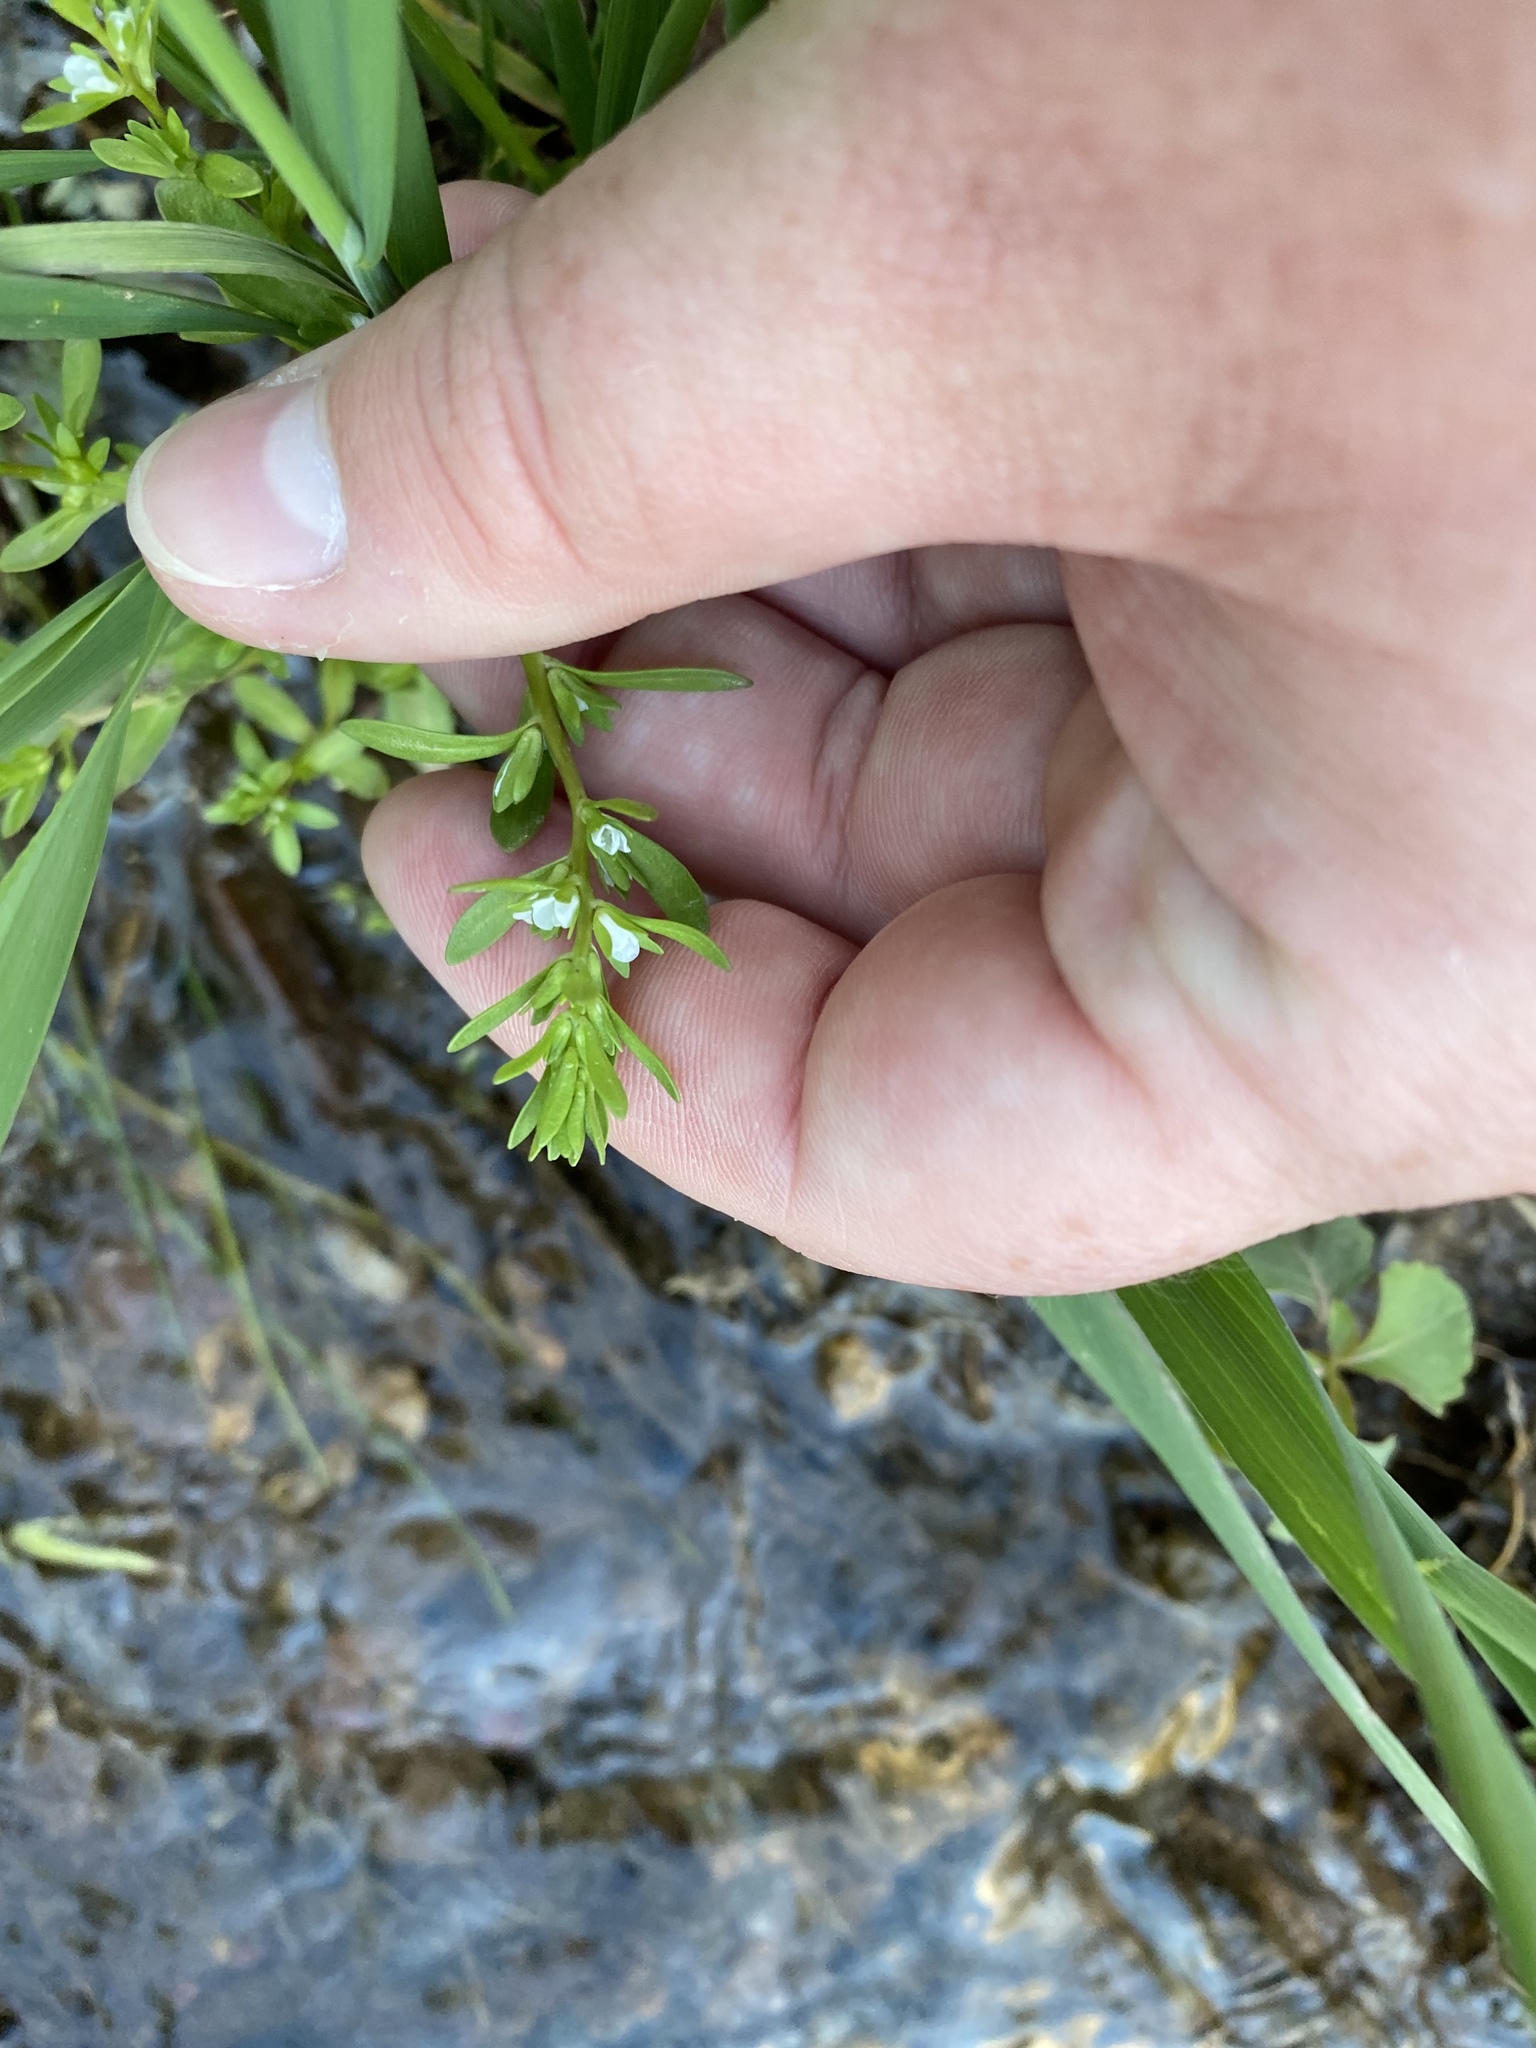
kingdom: Plantae
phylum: Tracheophyta
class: Magnoliopsida
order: Lamiales
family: Plantaginaceae
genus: Veronica
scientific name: Veronica peregrina
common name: Neckweed
